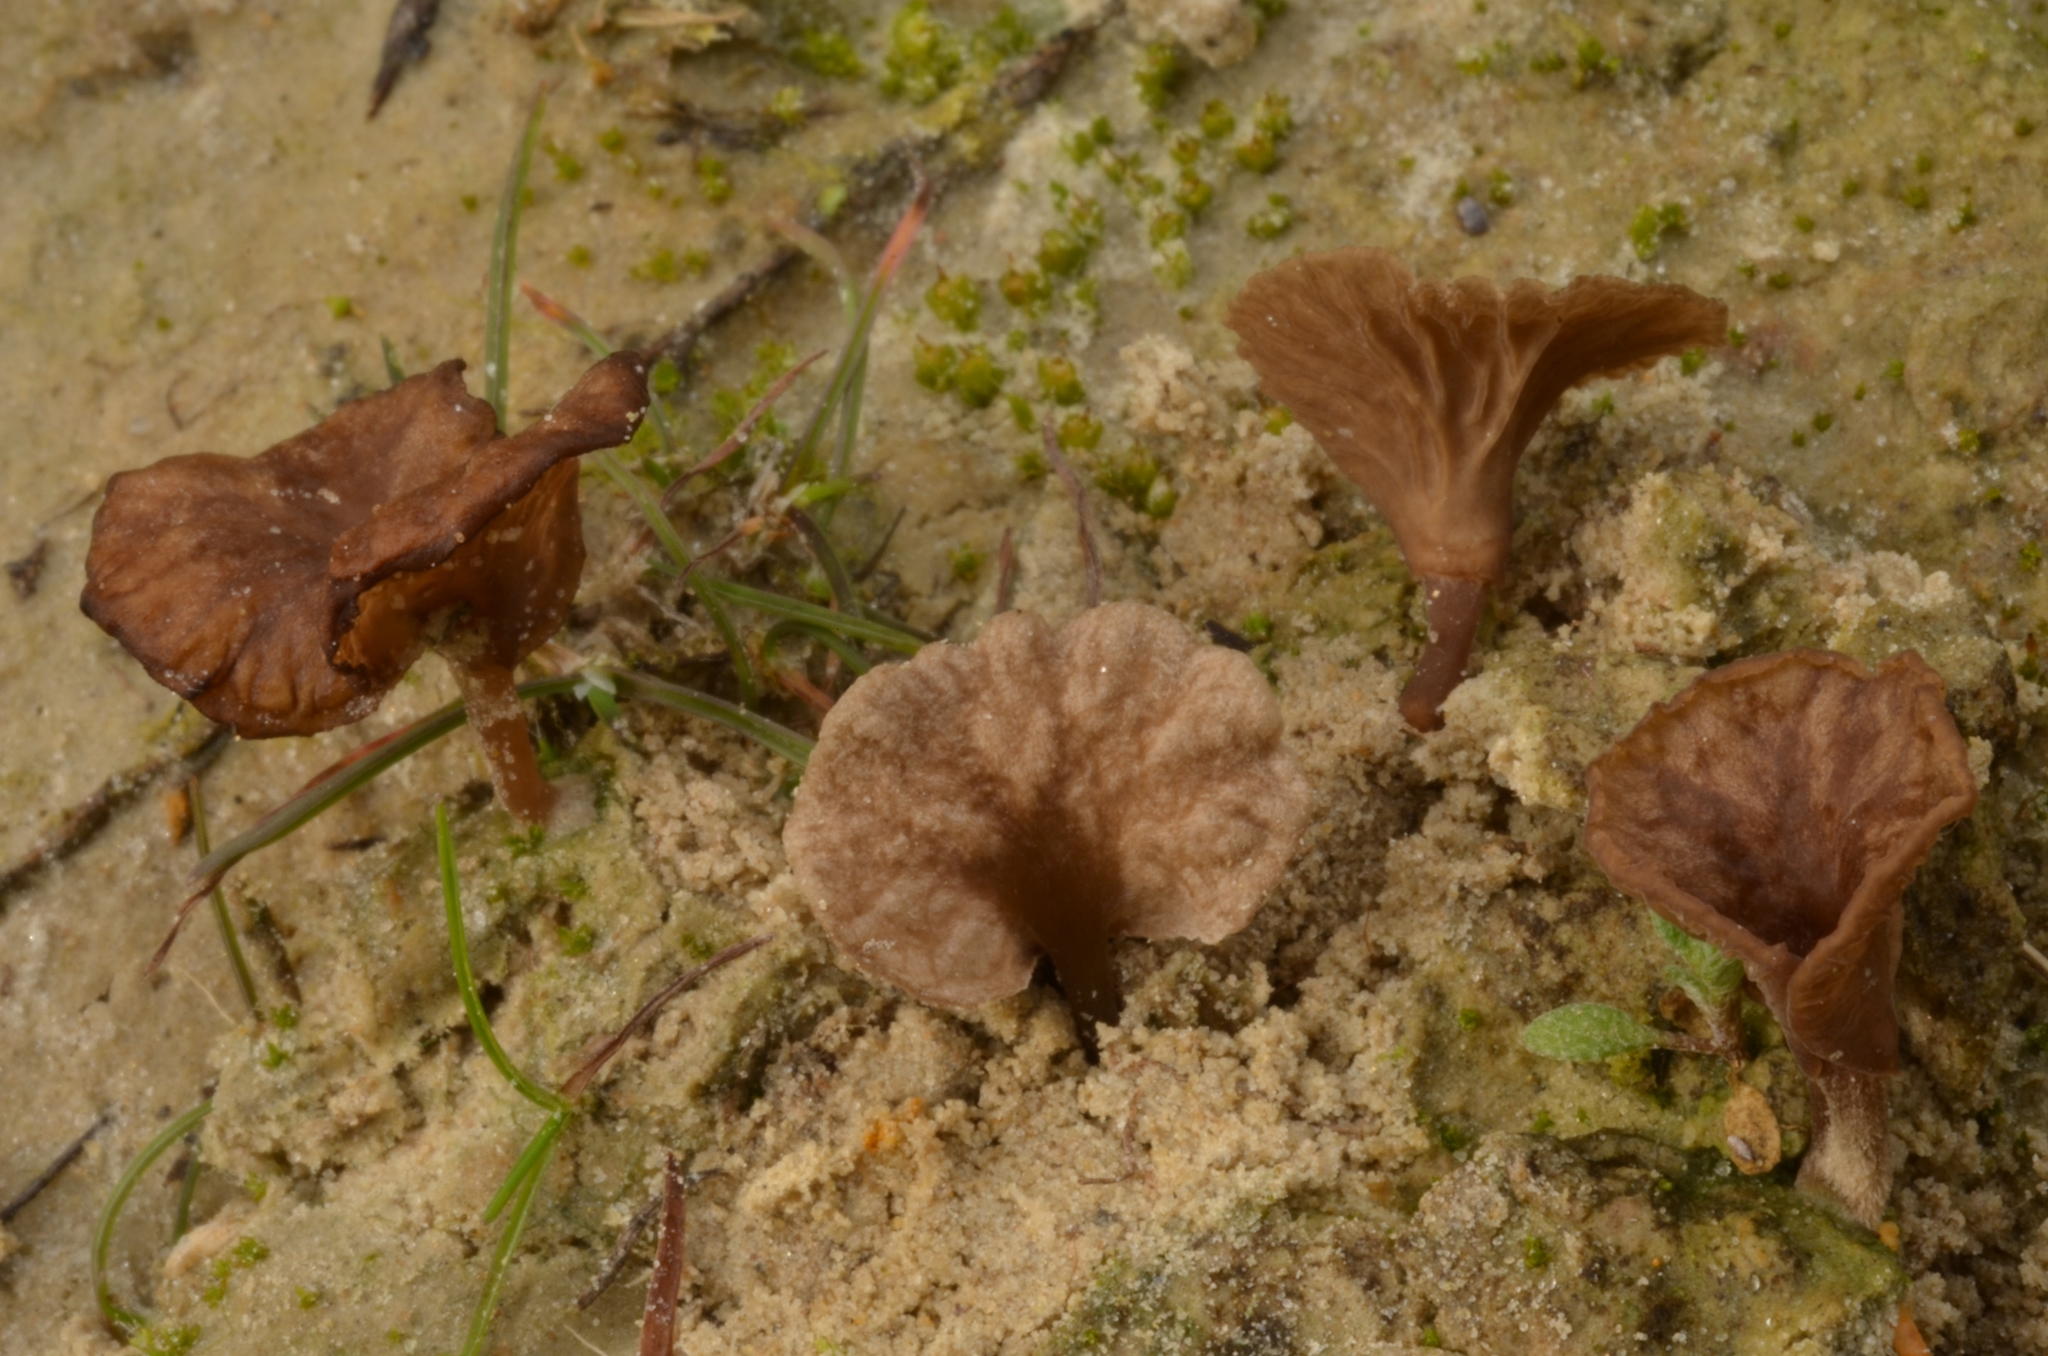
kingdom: Fungi
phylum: Basidiomycota
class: Agaricomycetes
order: Agaricales
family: Hygrophoraceae
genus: Arrhenia
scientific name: Arrhenia auriscalpium
